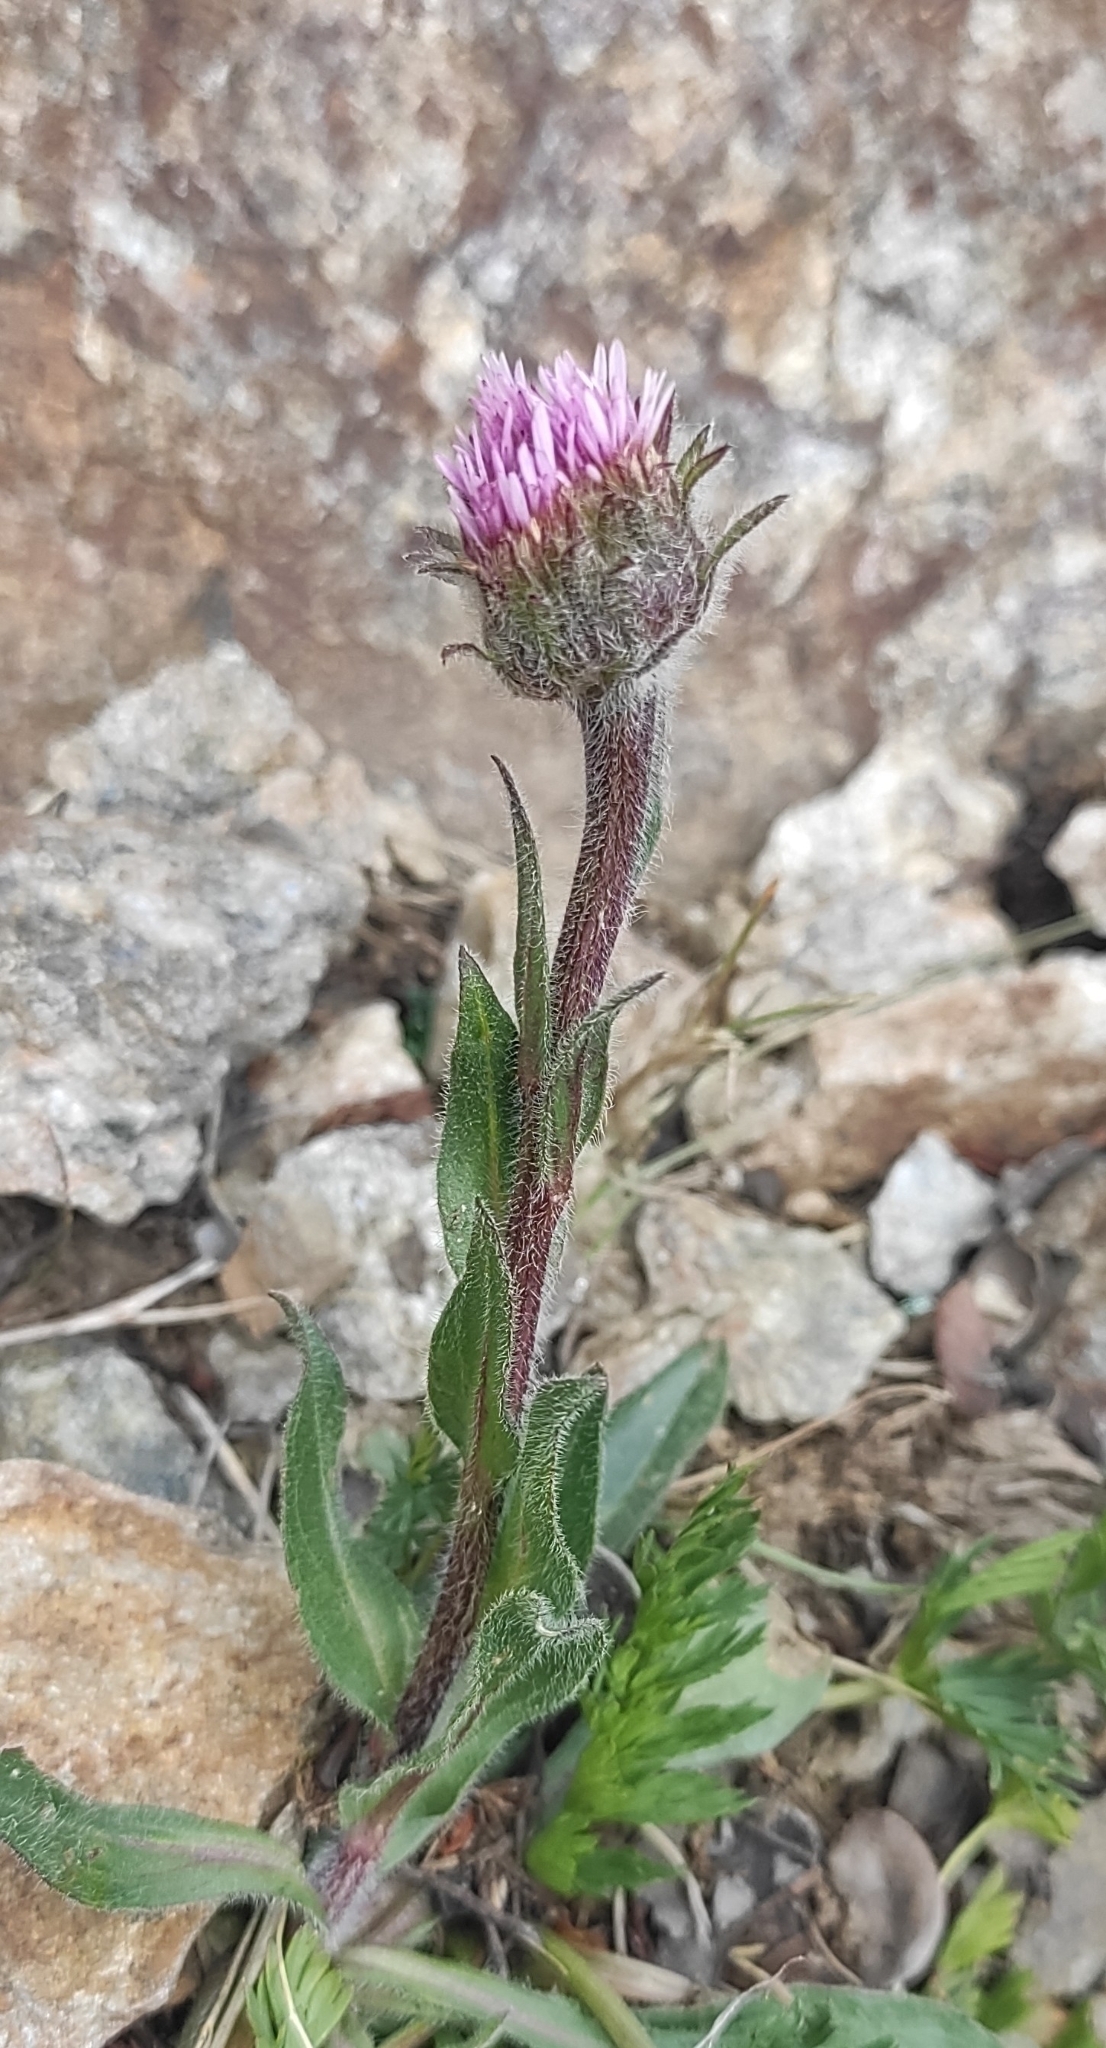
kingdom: Plantae
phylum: Tracheophyta
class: Magnoliopsida
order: Asterales
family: Asteraceae
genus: Erigeron
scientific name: Erigeron uniflorus
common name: Northern daisy
